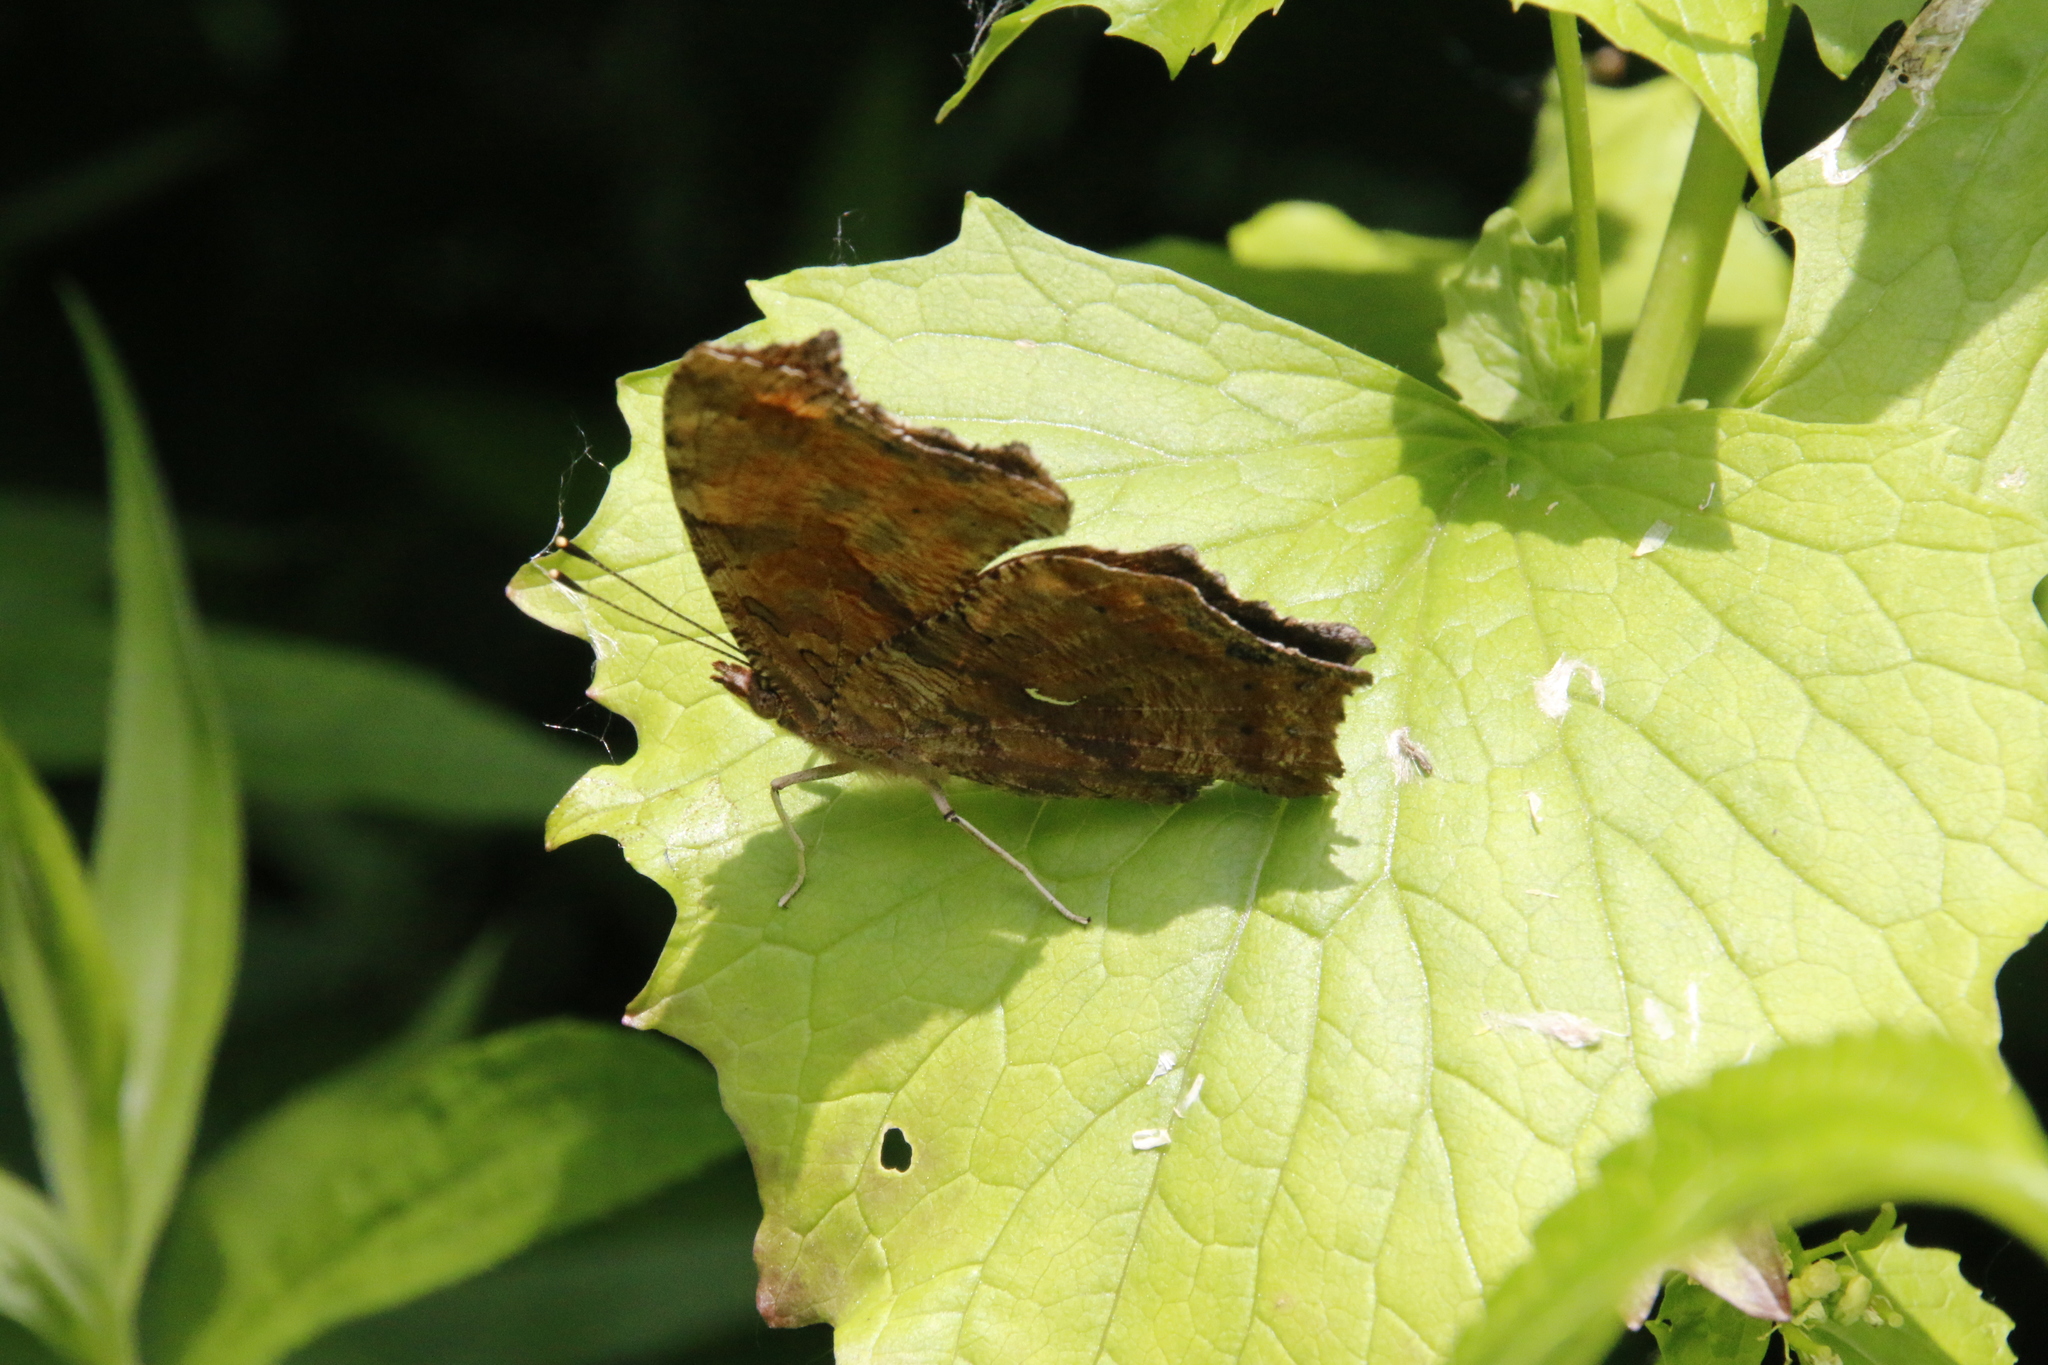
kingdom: Animalia
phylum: Arthropoda
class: Insecta
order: Lepidoptera
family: Nymphalidae
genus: Polygonia
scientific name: Polygonia comma
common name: Eastern comma
